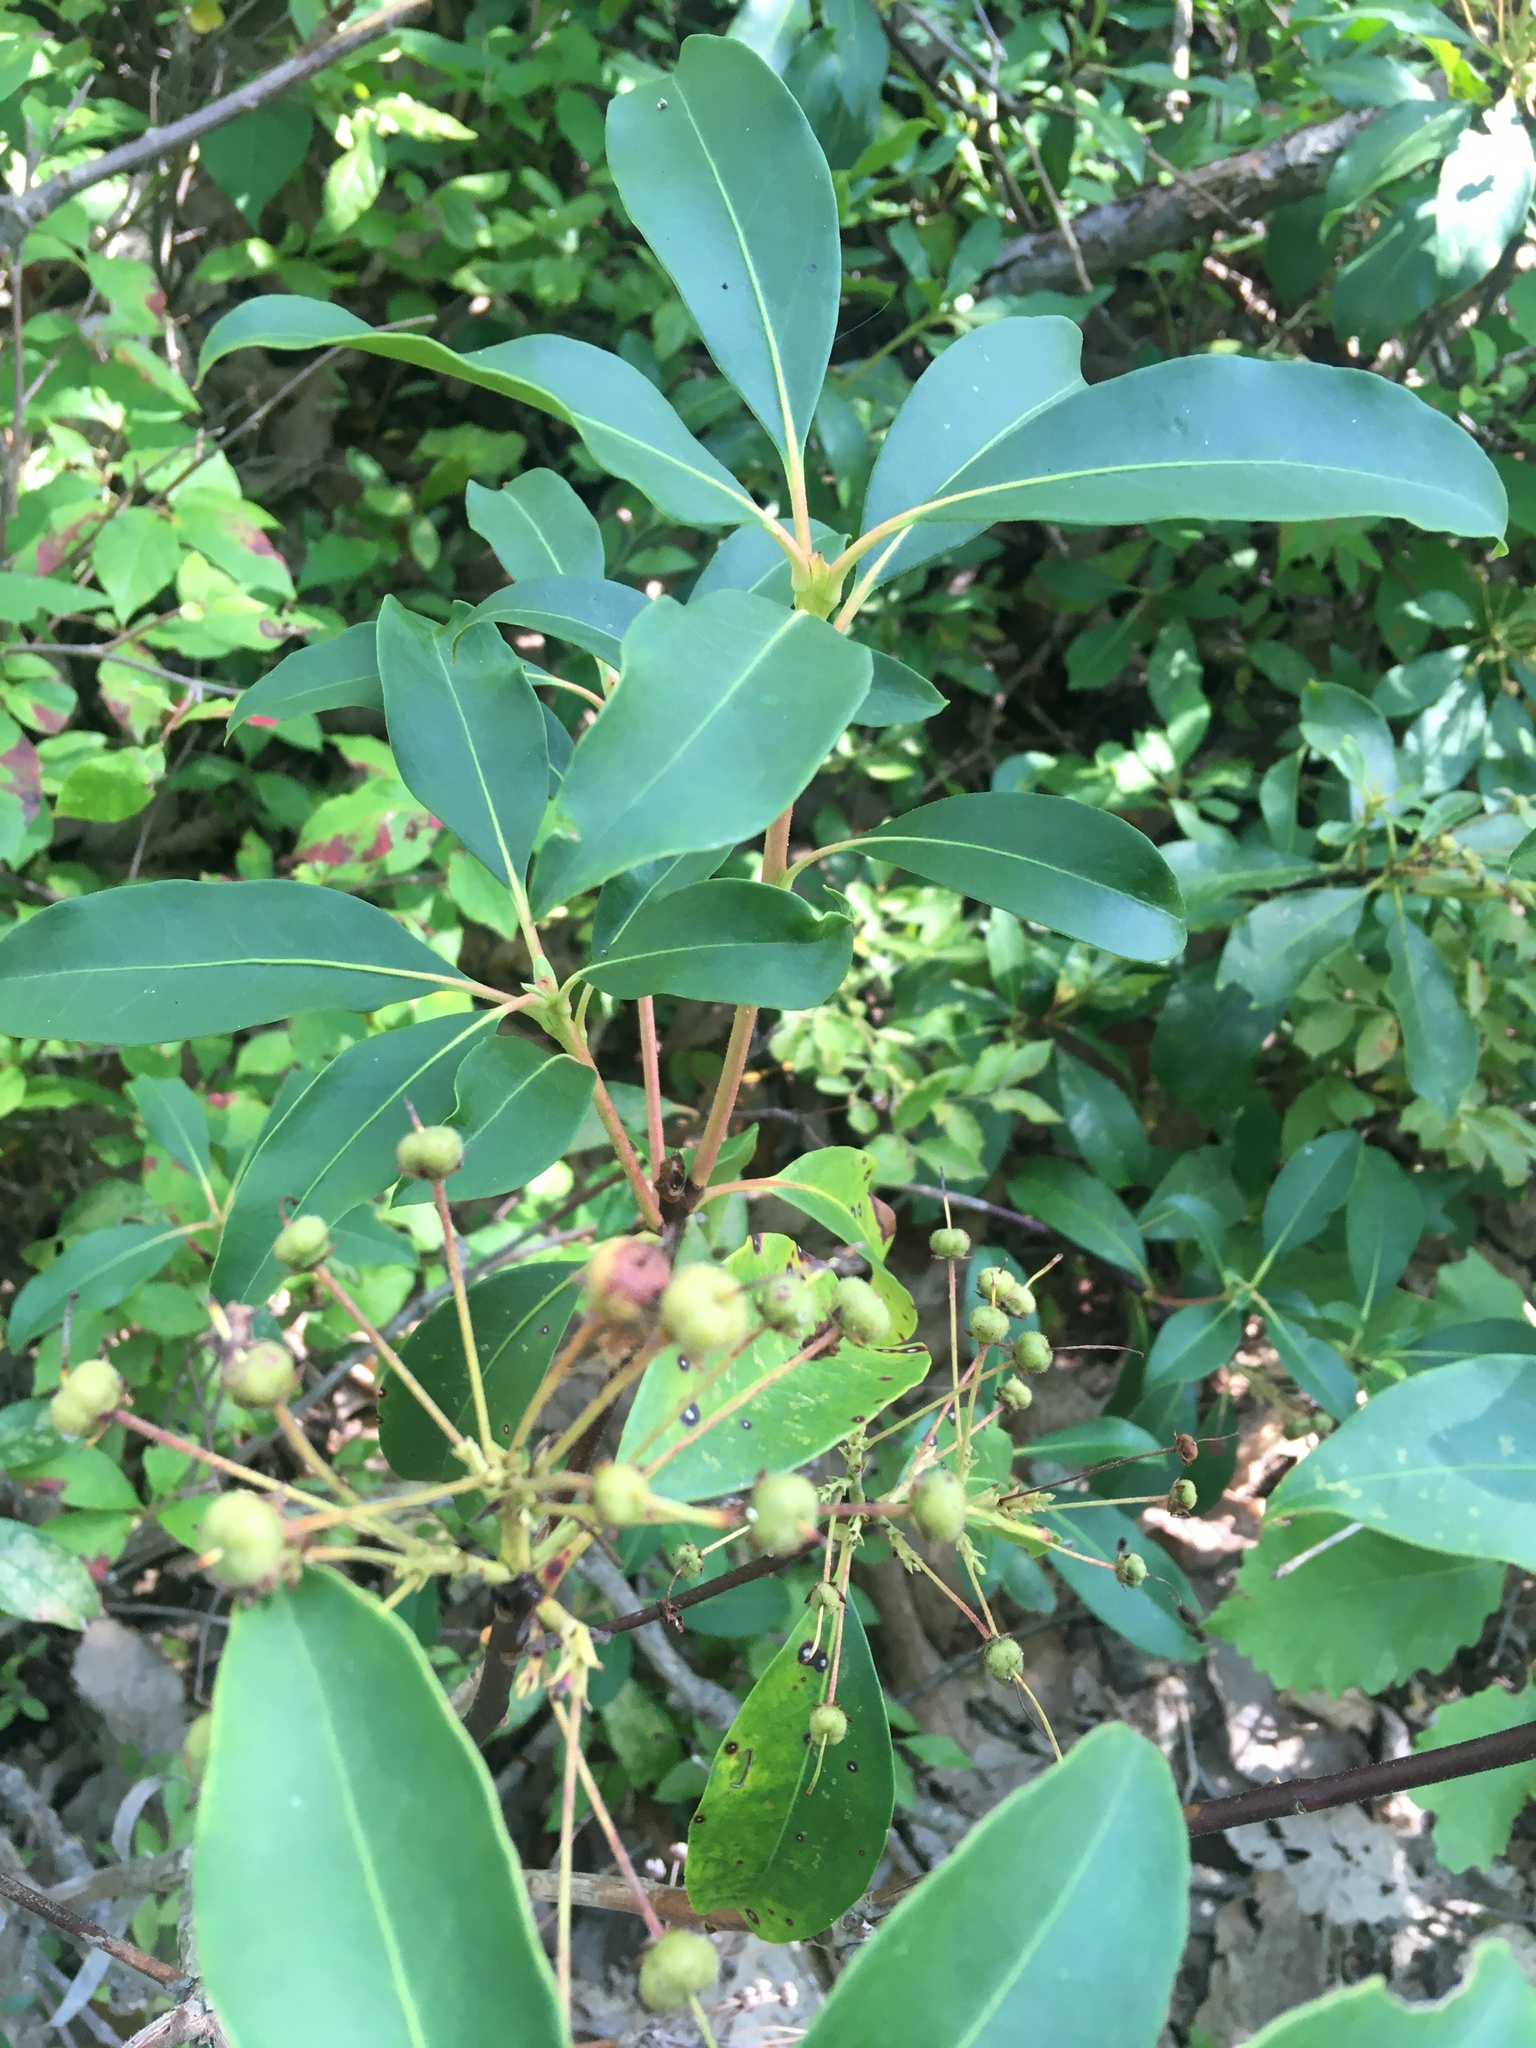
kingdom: Plantae
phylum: Tracheophyta
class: Magnoliopsida
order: Ericales
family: Ericaceae
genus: Kalmia
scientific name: Kalmia latifolia
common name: Mountain-laurel
